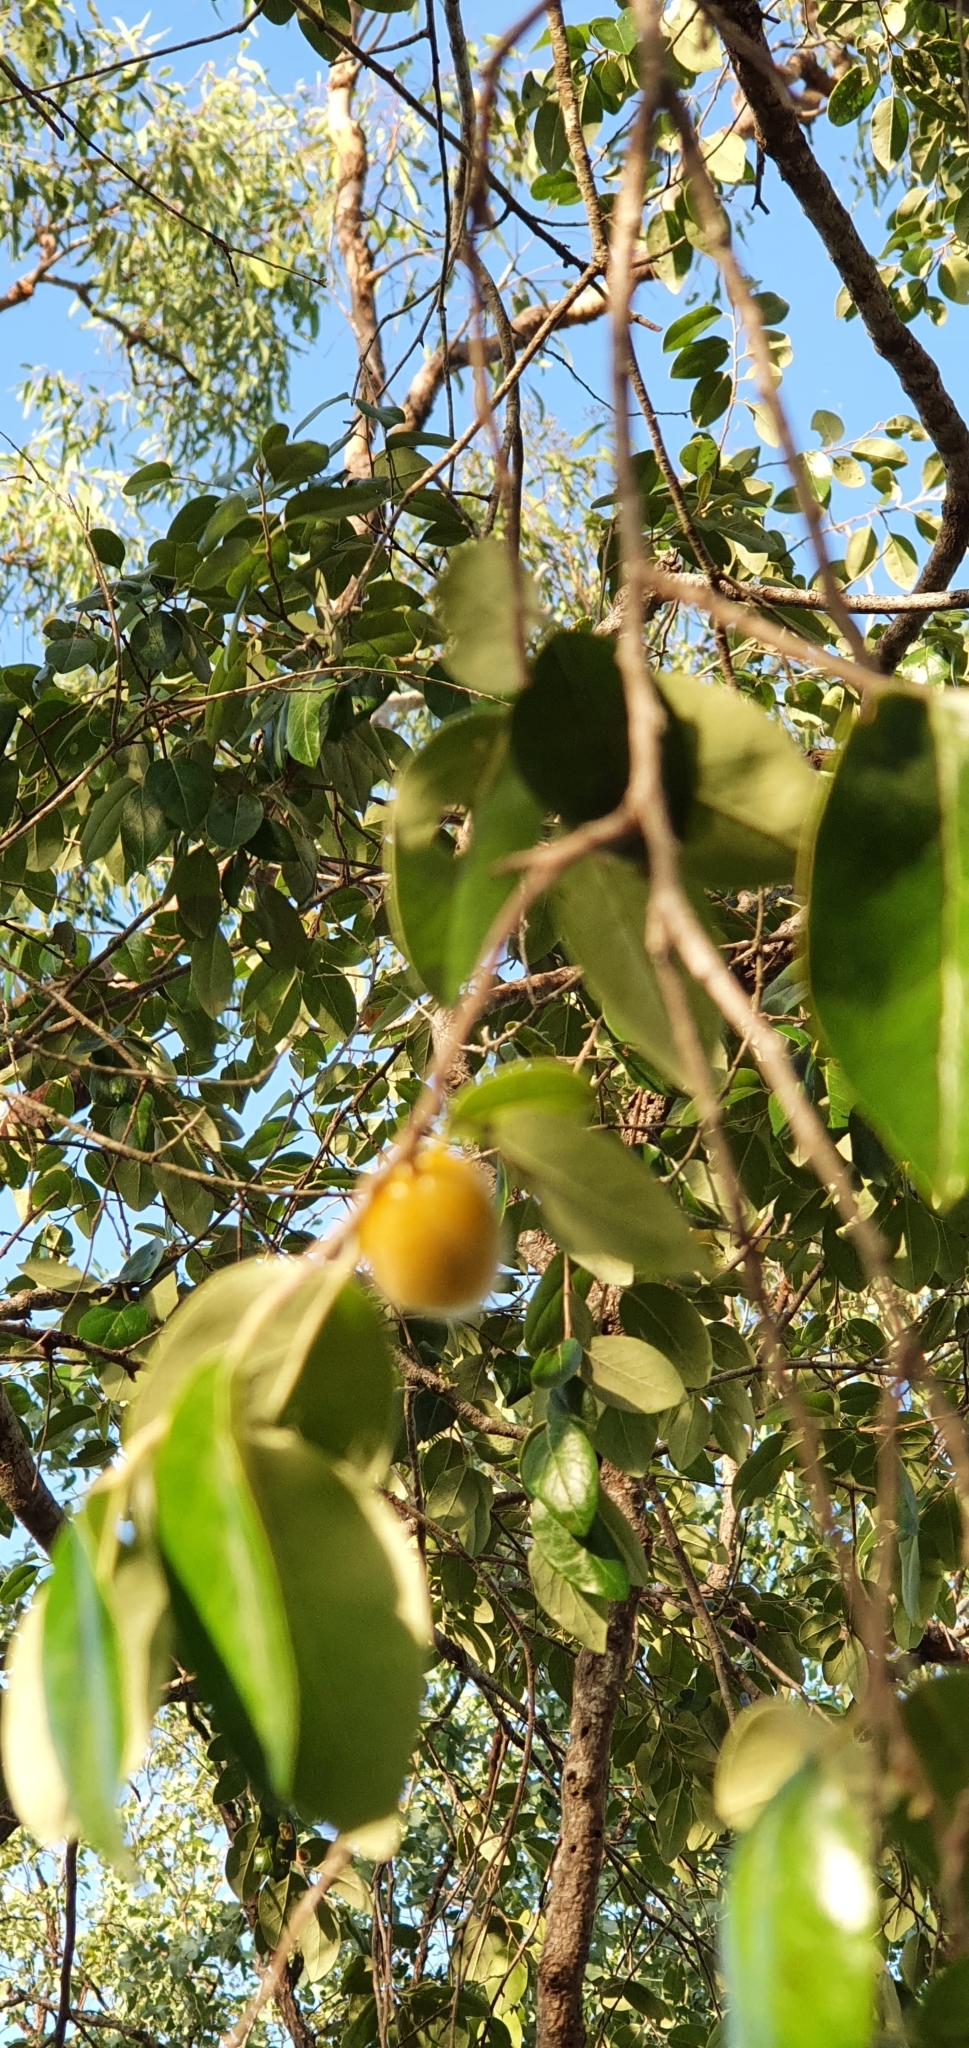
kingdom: Plantae
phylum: Tracheophyta
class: Magnoliopsida
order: Malpighiales
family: Picrodendraceae
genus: Petalostigma
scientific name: Petalostigma pubescens
